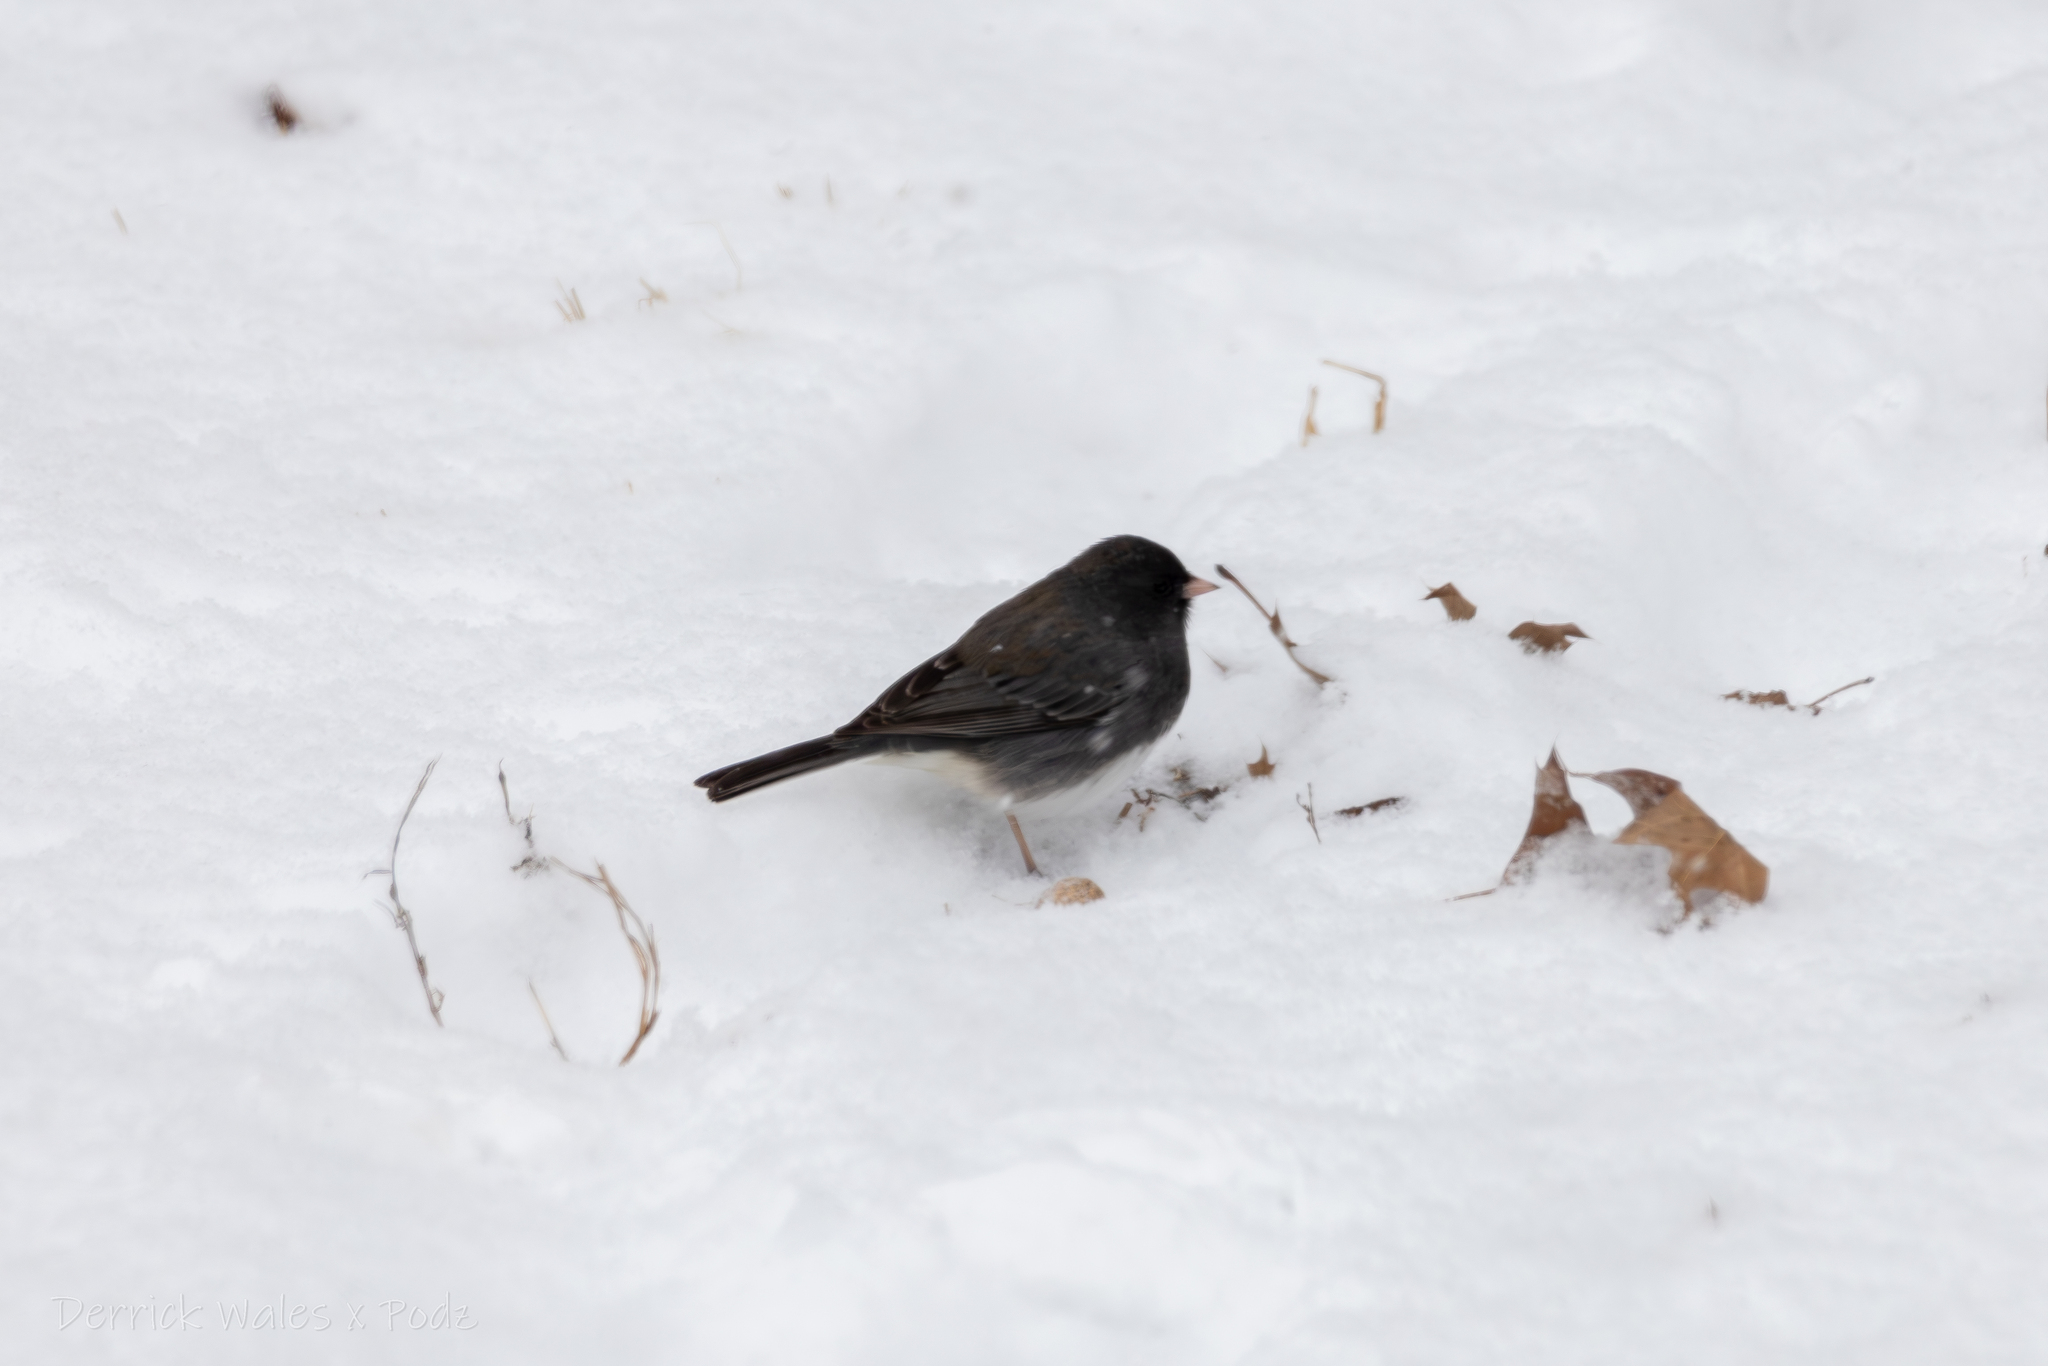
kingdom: Animalia
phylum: Chordata
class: Aves
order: Passeriformes
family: Passerellidae
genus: Junco
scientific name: Junco hyemalis
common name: Dark-eyed junco
